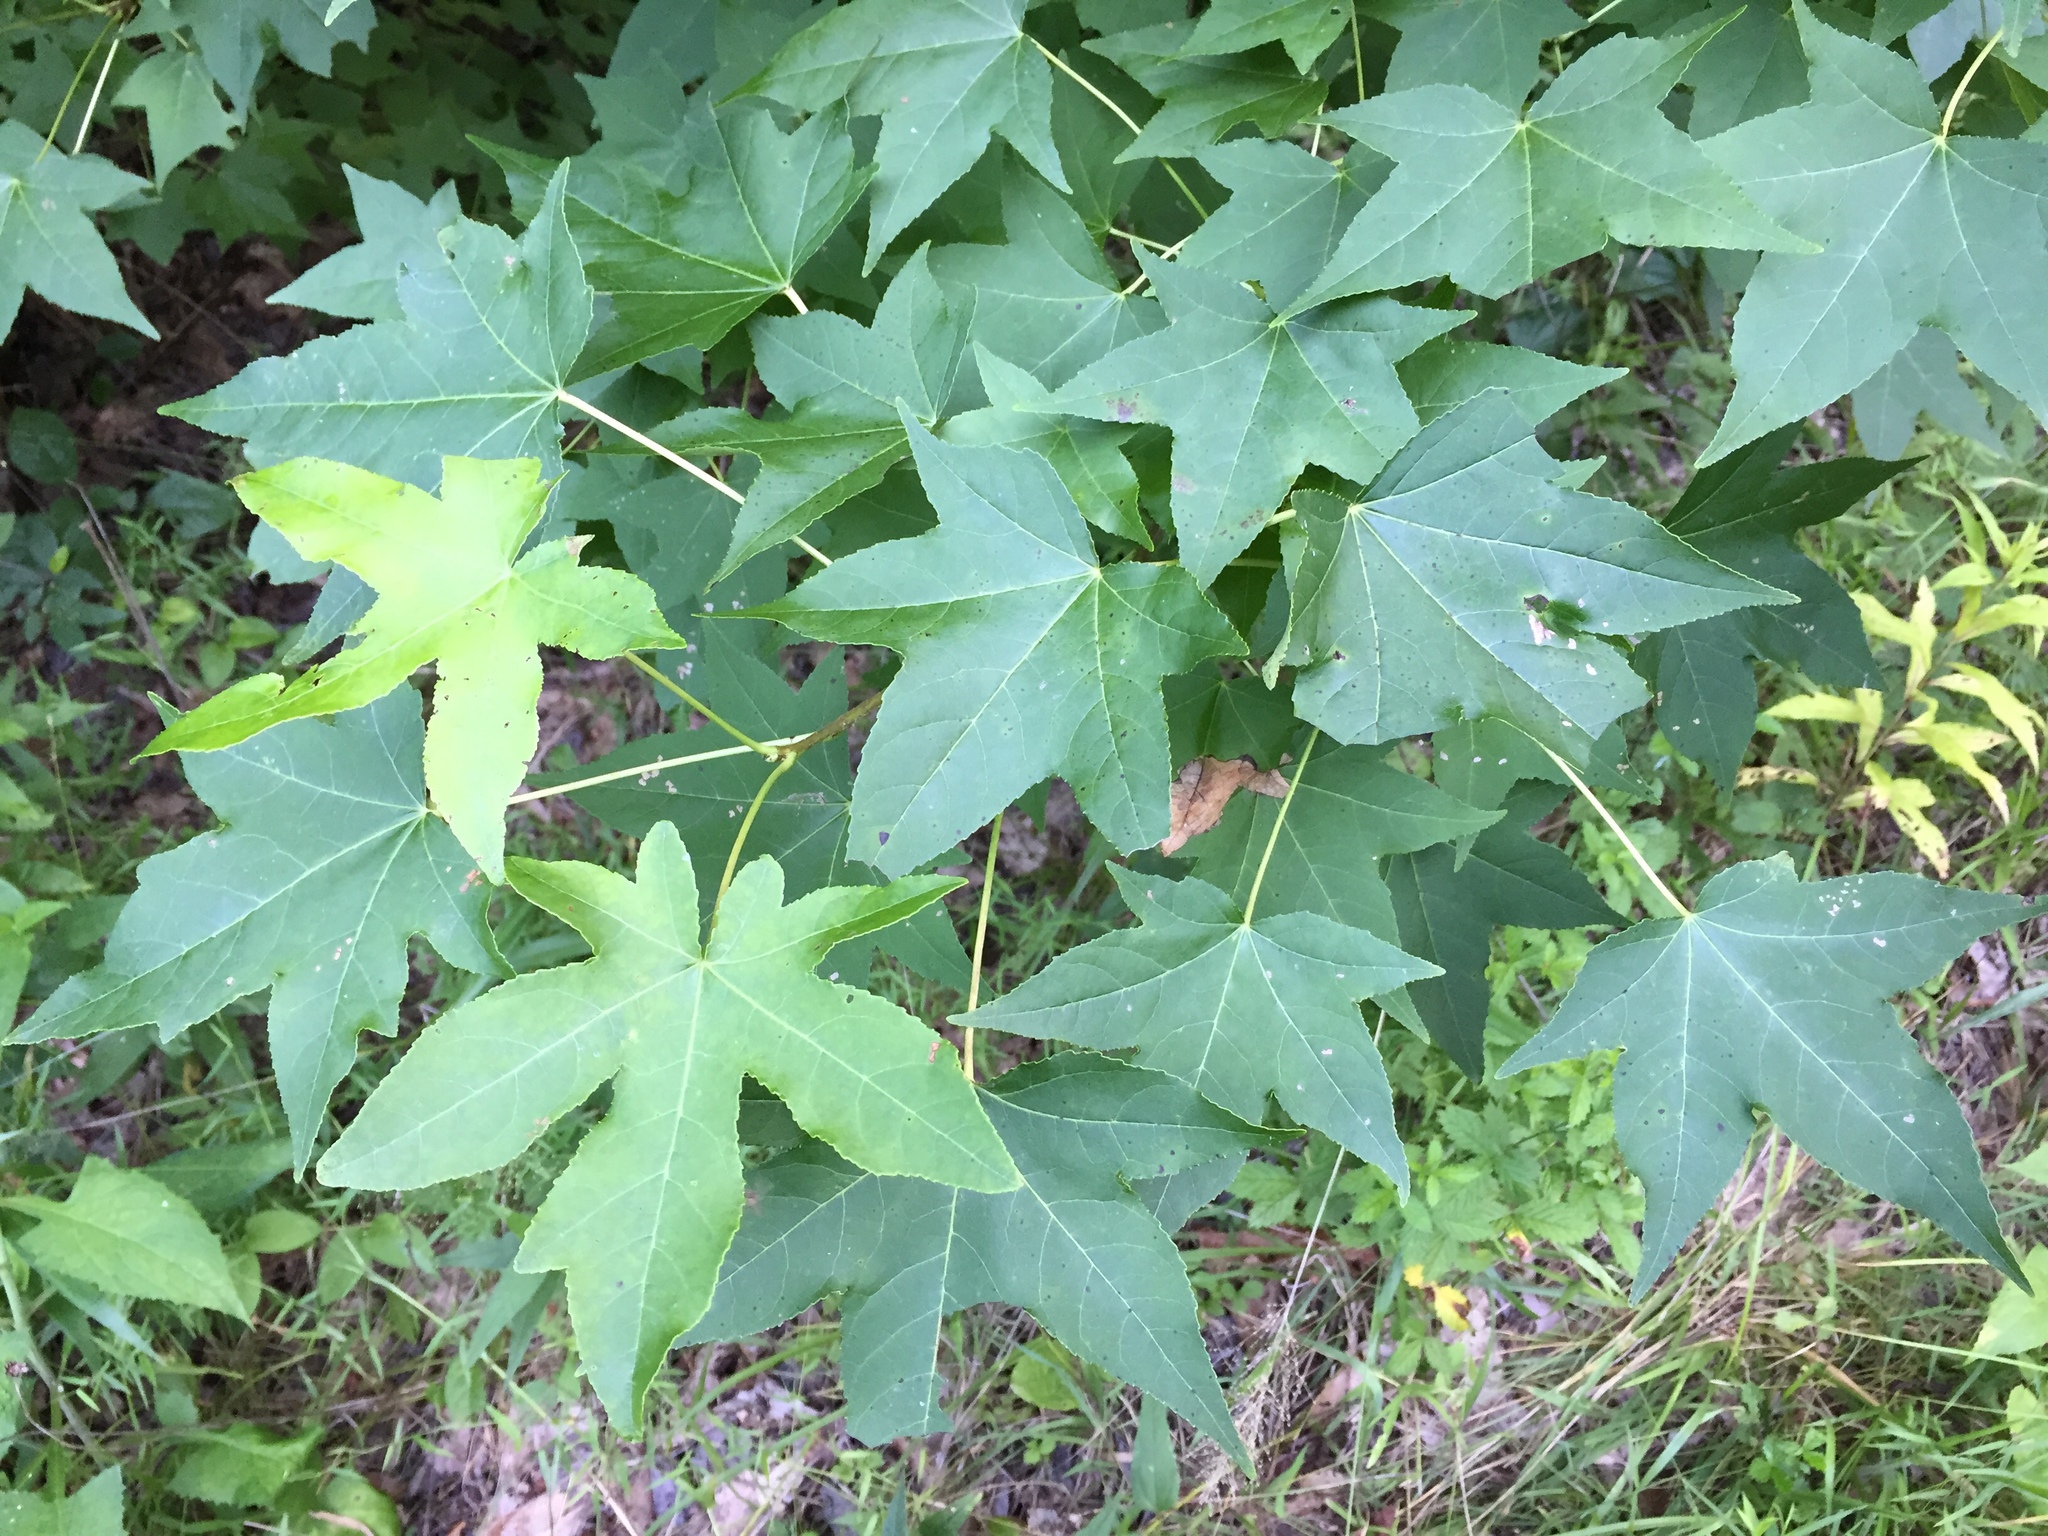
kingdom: Plantae
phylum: Tracheophyta
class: Magnoliopsida
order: Saxifragales
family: Altingiaceae
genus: Liquidambar
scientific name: Liquidambar styraciflua
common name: Sweet gum
